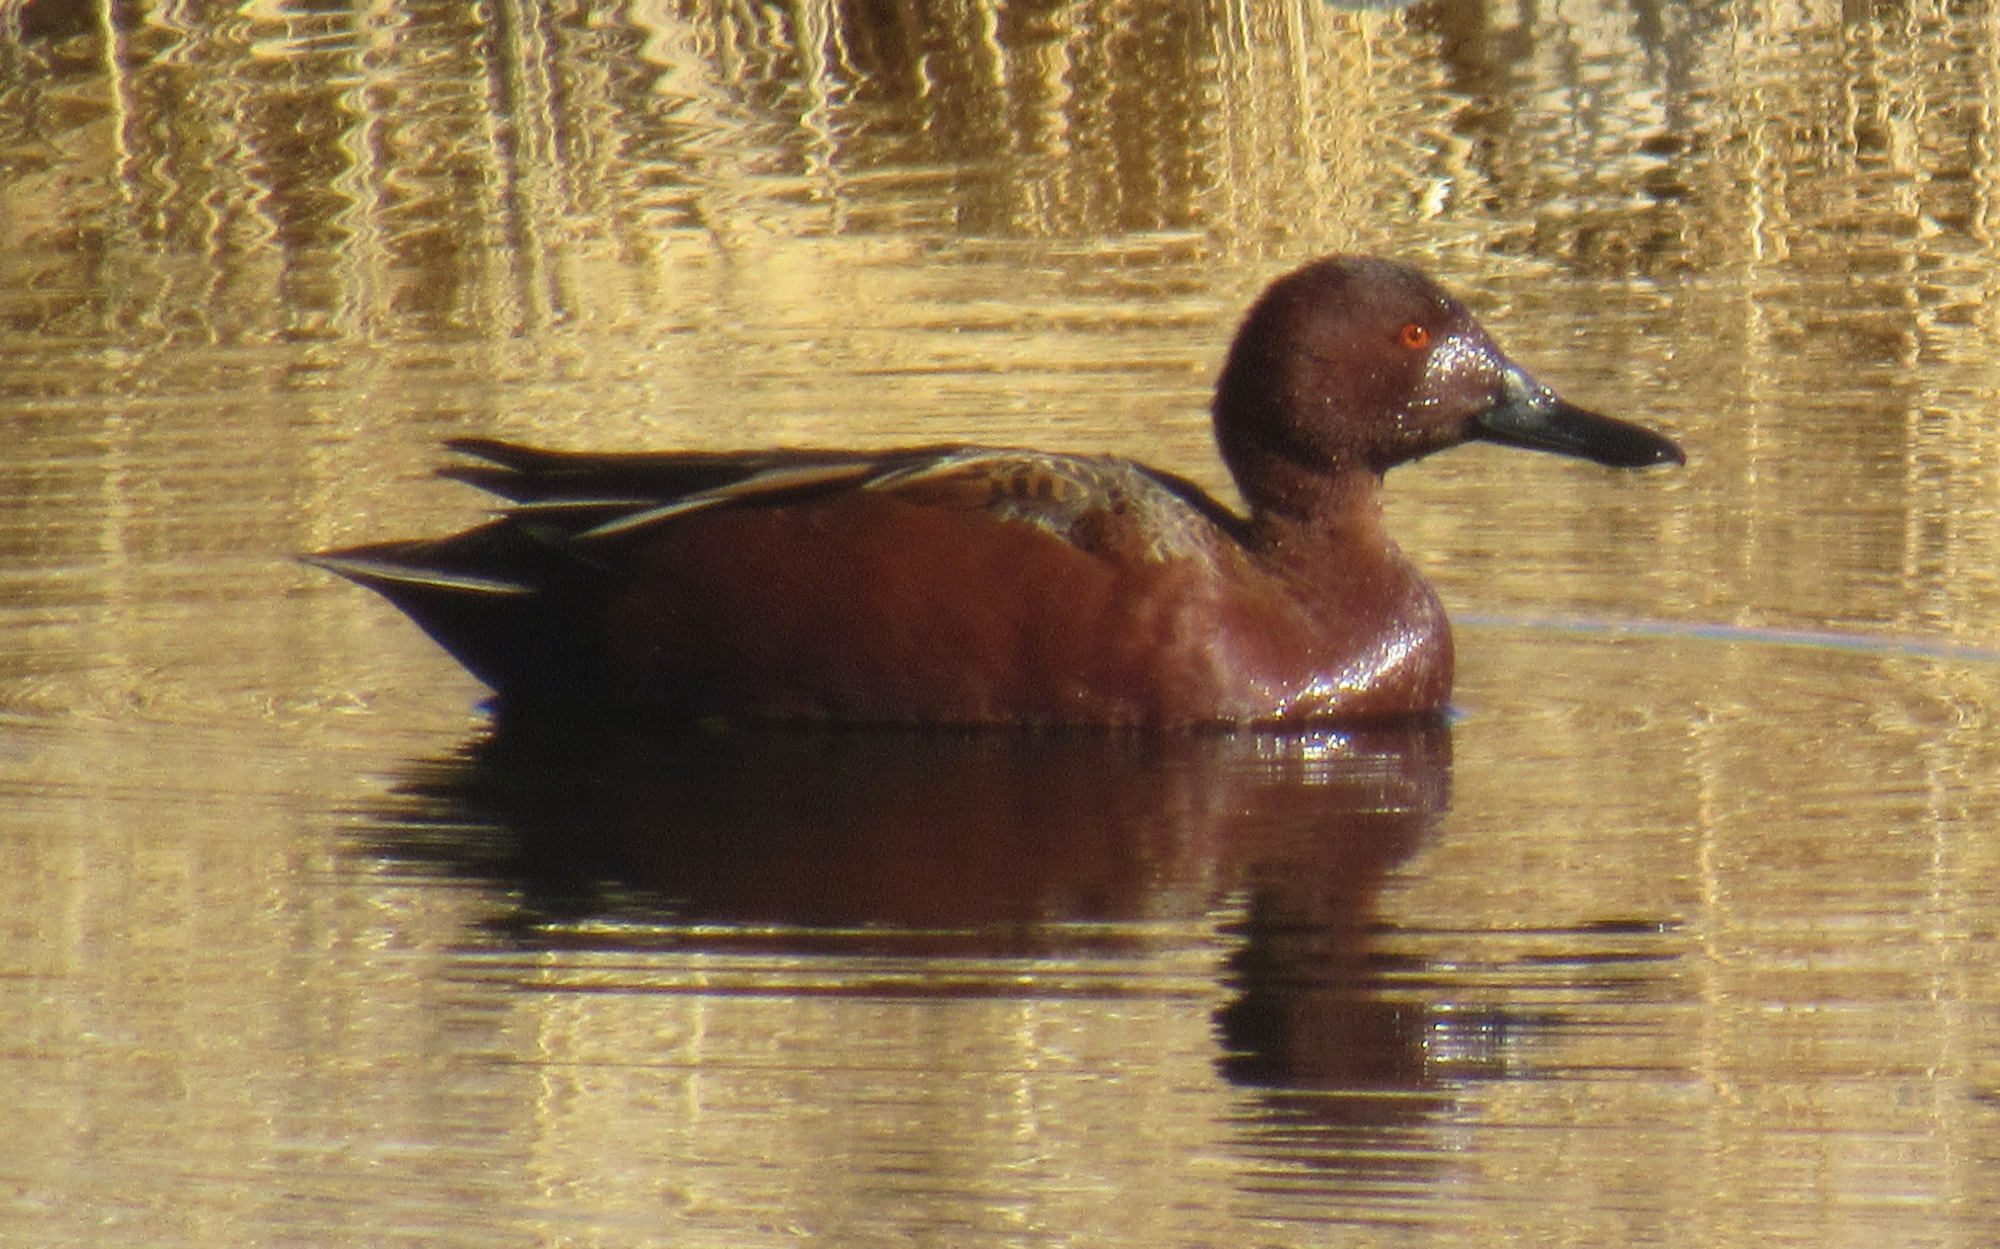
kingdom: Animalia
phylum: Chordata
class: Aves
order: Anseriformes
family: Anatidae
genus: Spatula
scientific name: Spatula cyanoptera
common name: Cinnamon teal
